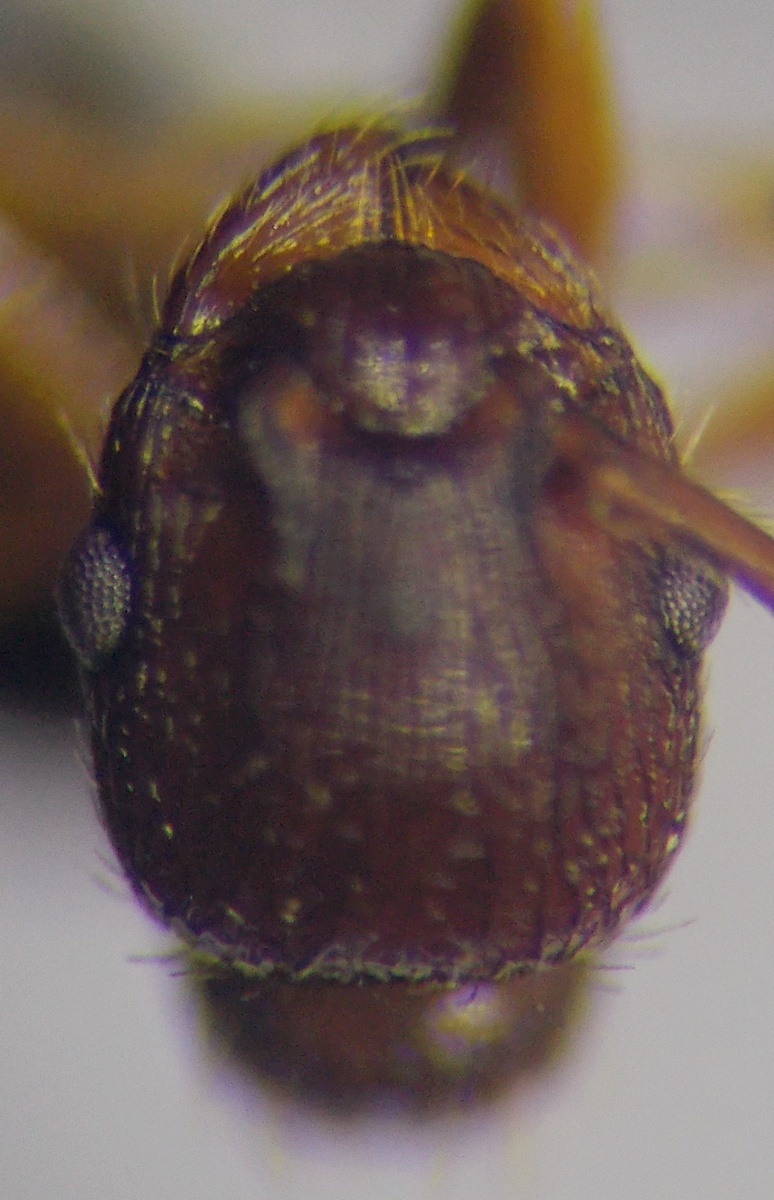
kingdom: Animalia
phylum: Arthropoda
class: Insecta
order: Hymenoptera
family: Formicidae
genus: Myrmica
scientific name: Myrmica scabrinodis
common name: Ant
